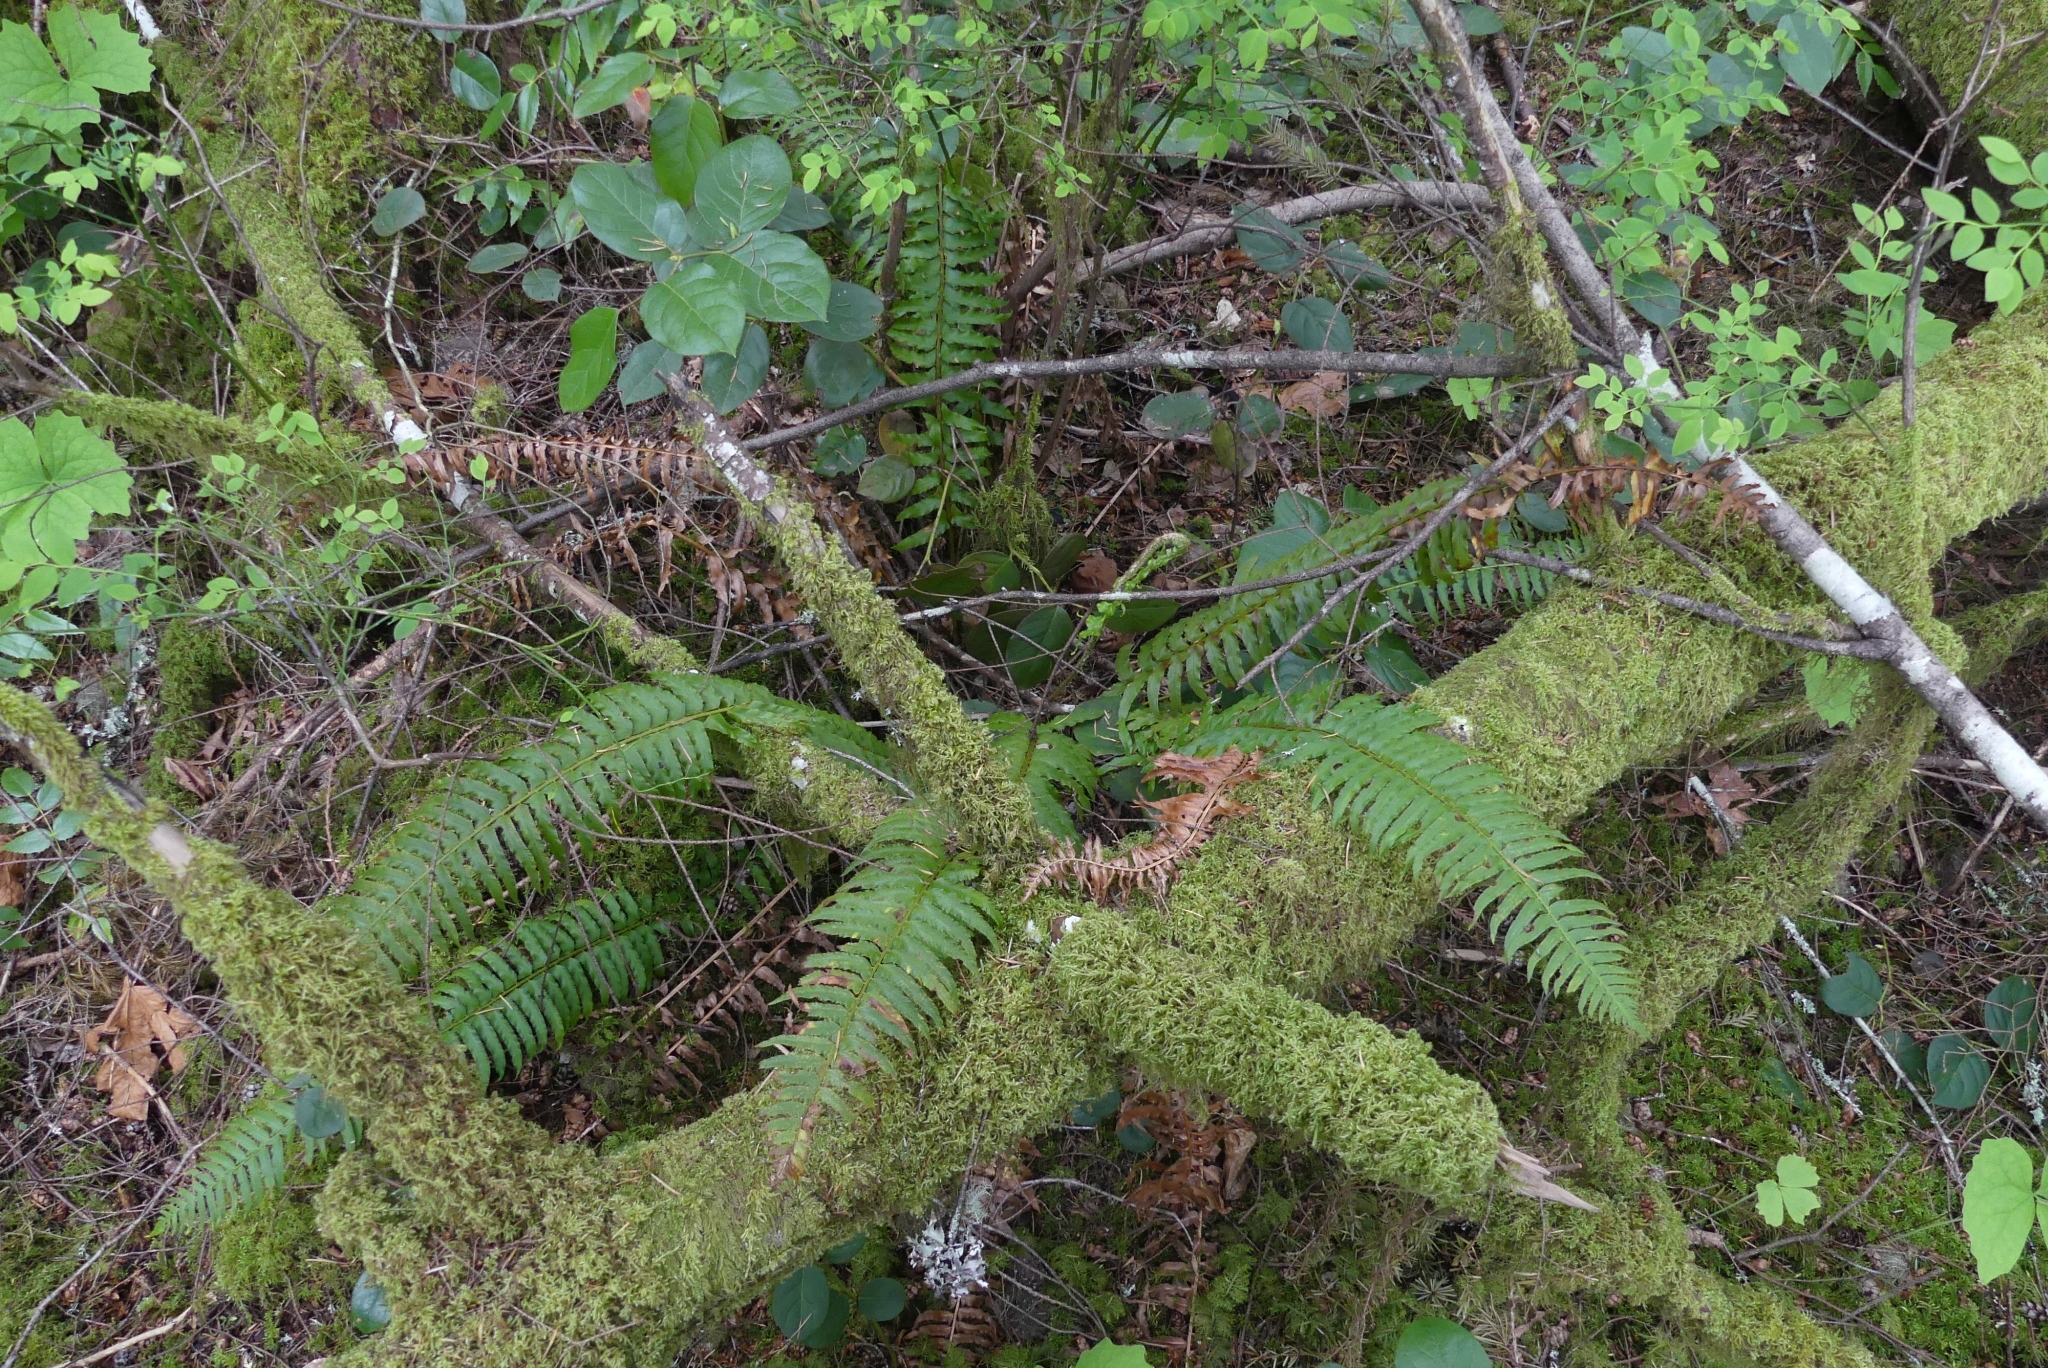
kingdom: Plantae
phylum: Tracheophyta
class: Polypodiopsida
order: Polypodiales
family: Dryopteridaceae
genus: Polystichum
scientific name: Polystichum munitum
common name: Western sword-fern
